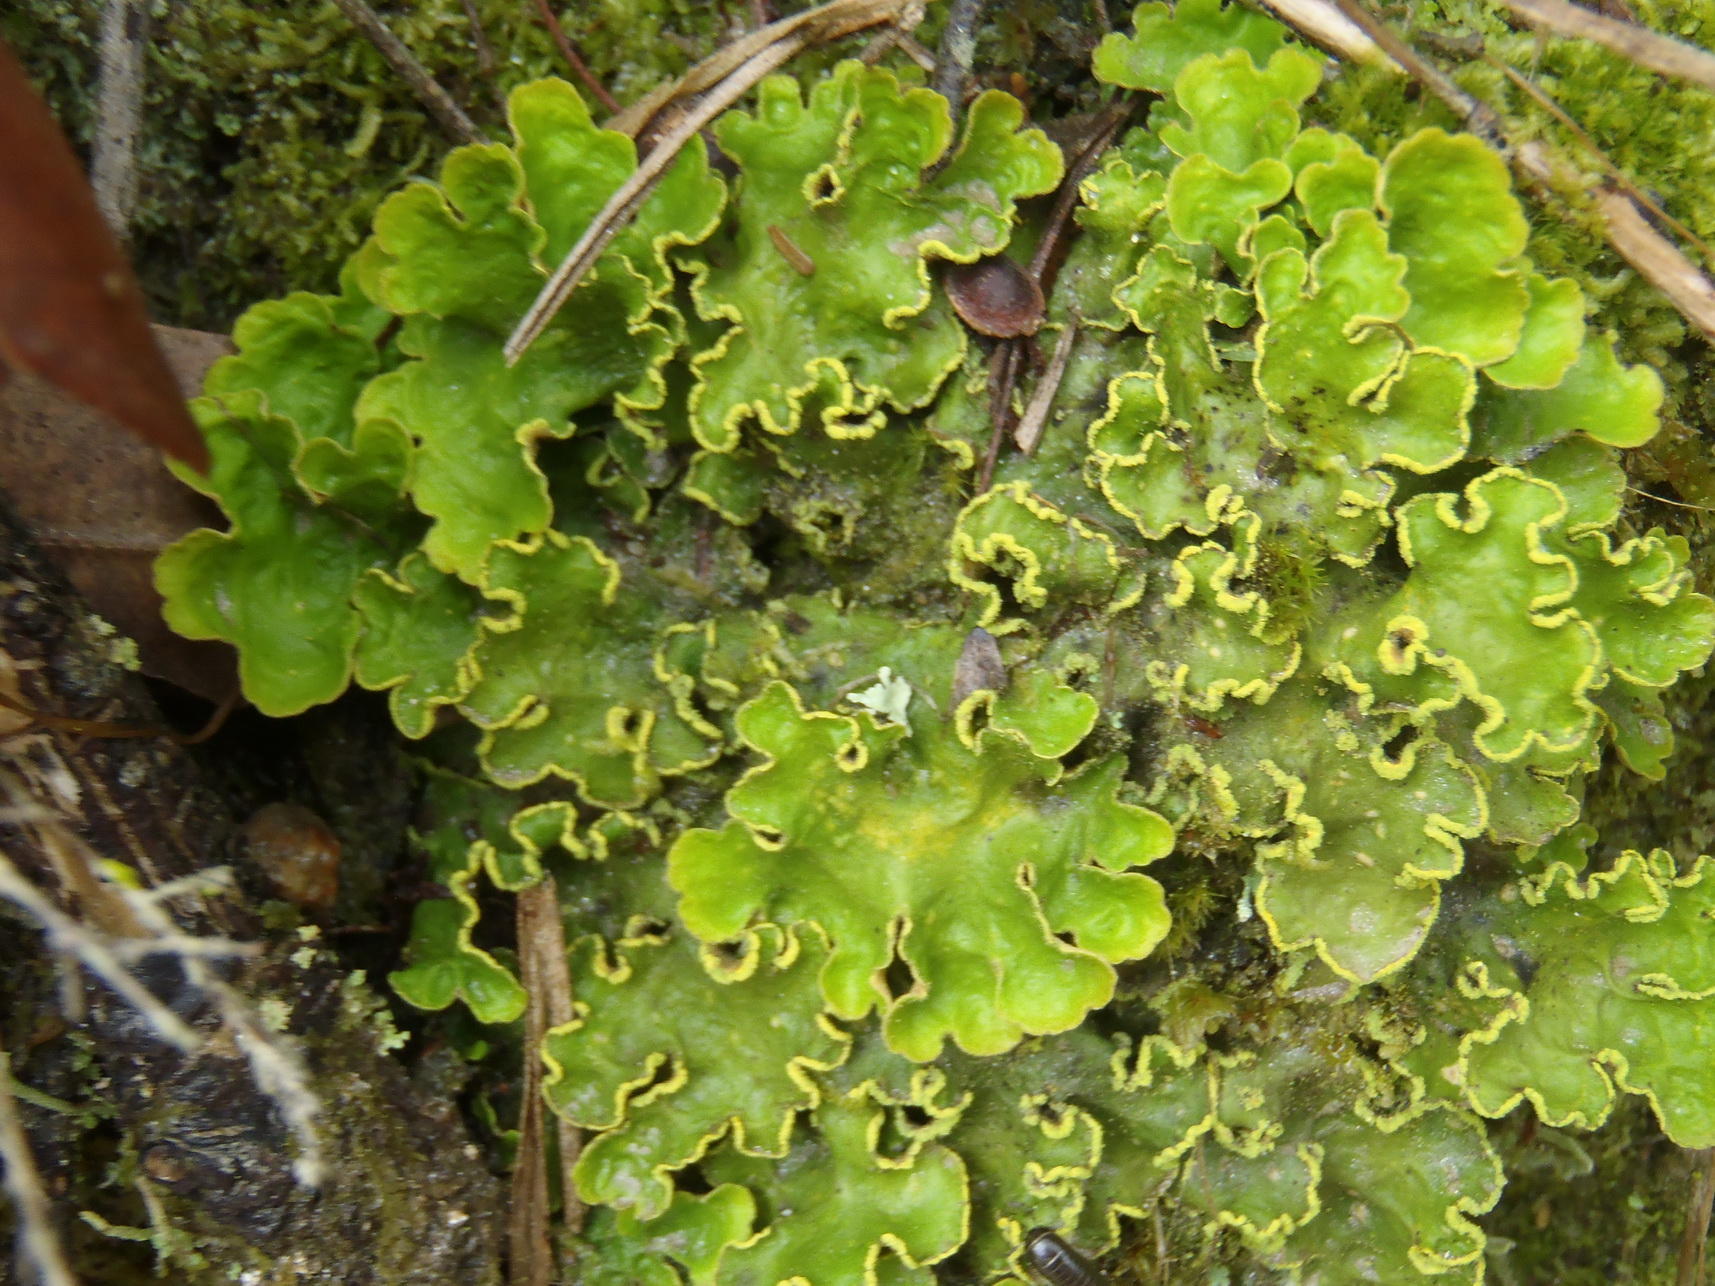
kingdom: Fungi
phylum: Ascomycota
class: Lecanoromycetes
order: Peltigerales
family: Lobariaceae
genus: Pseudocyphellaria
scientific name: Pseudocyphellaria aurata
